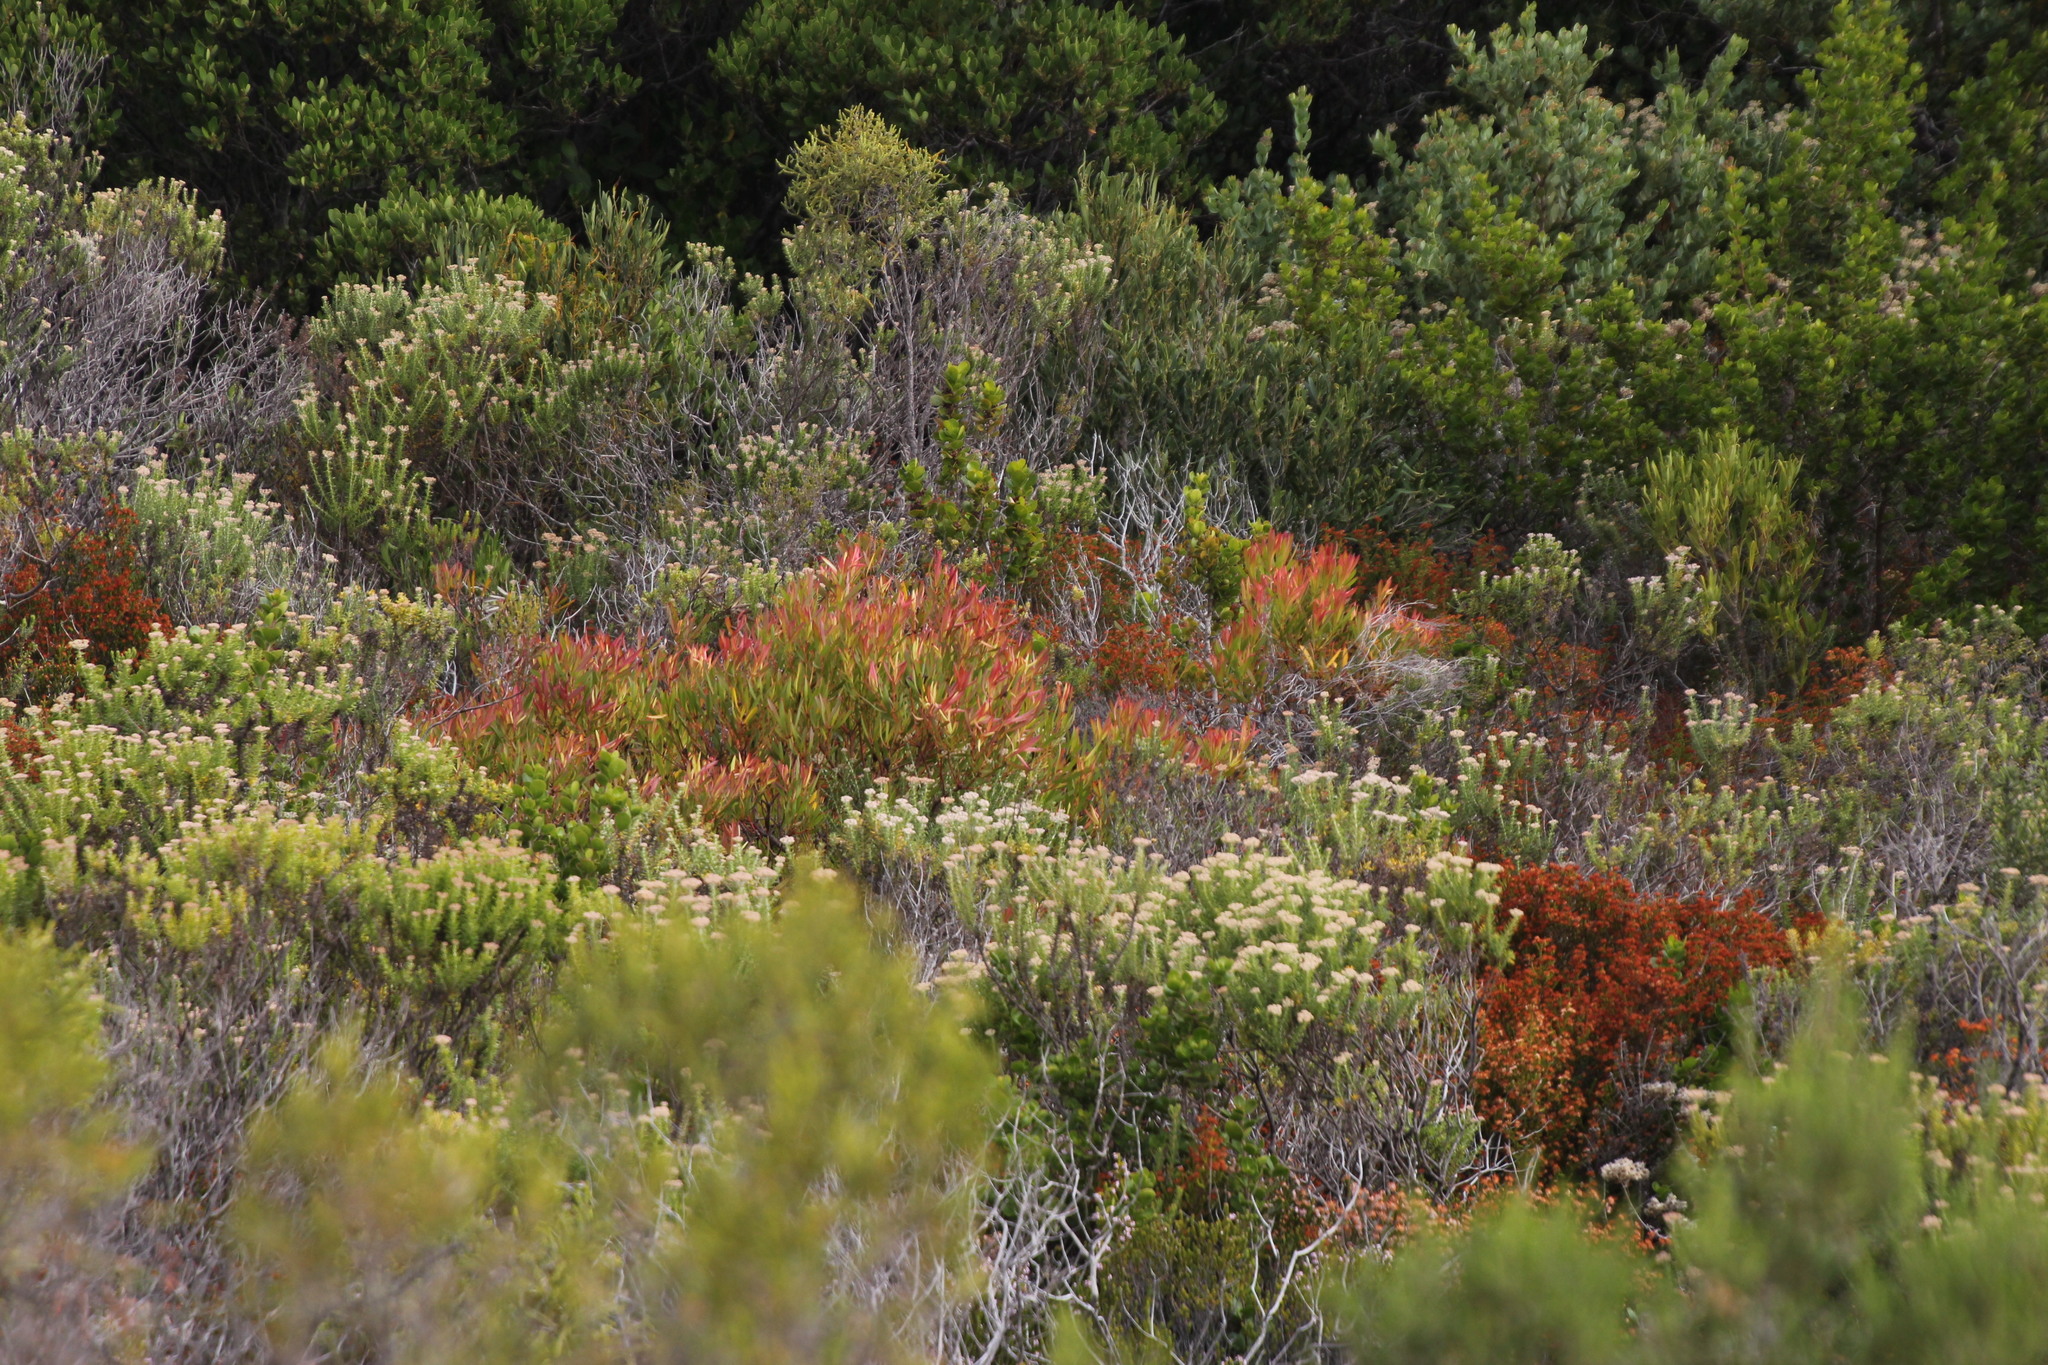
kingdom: Plantae
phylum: Tracheophyta
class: Magnoliopsida
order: Proteales
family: Proteaceae
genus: Leucadendron
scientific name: Leucadendron salignum
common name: Common sunshine conebush
